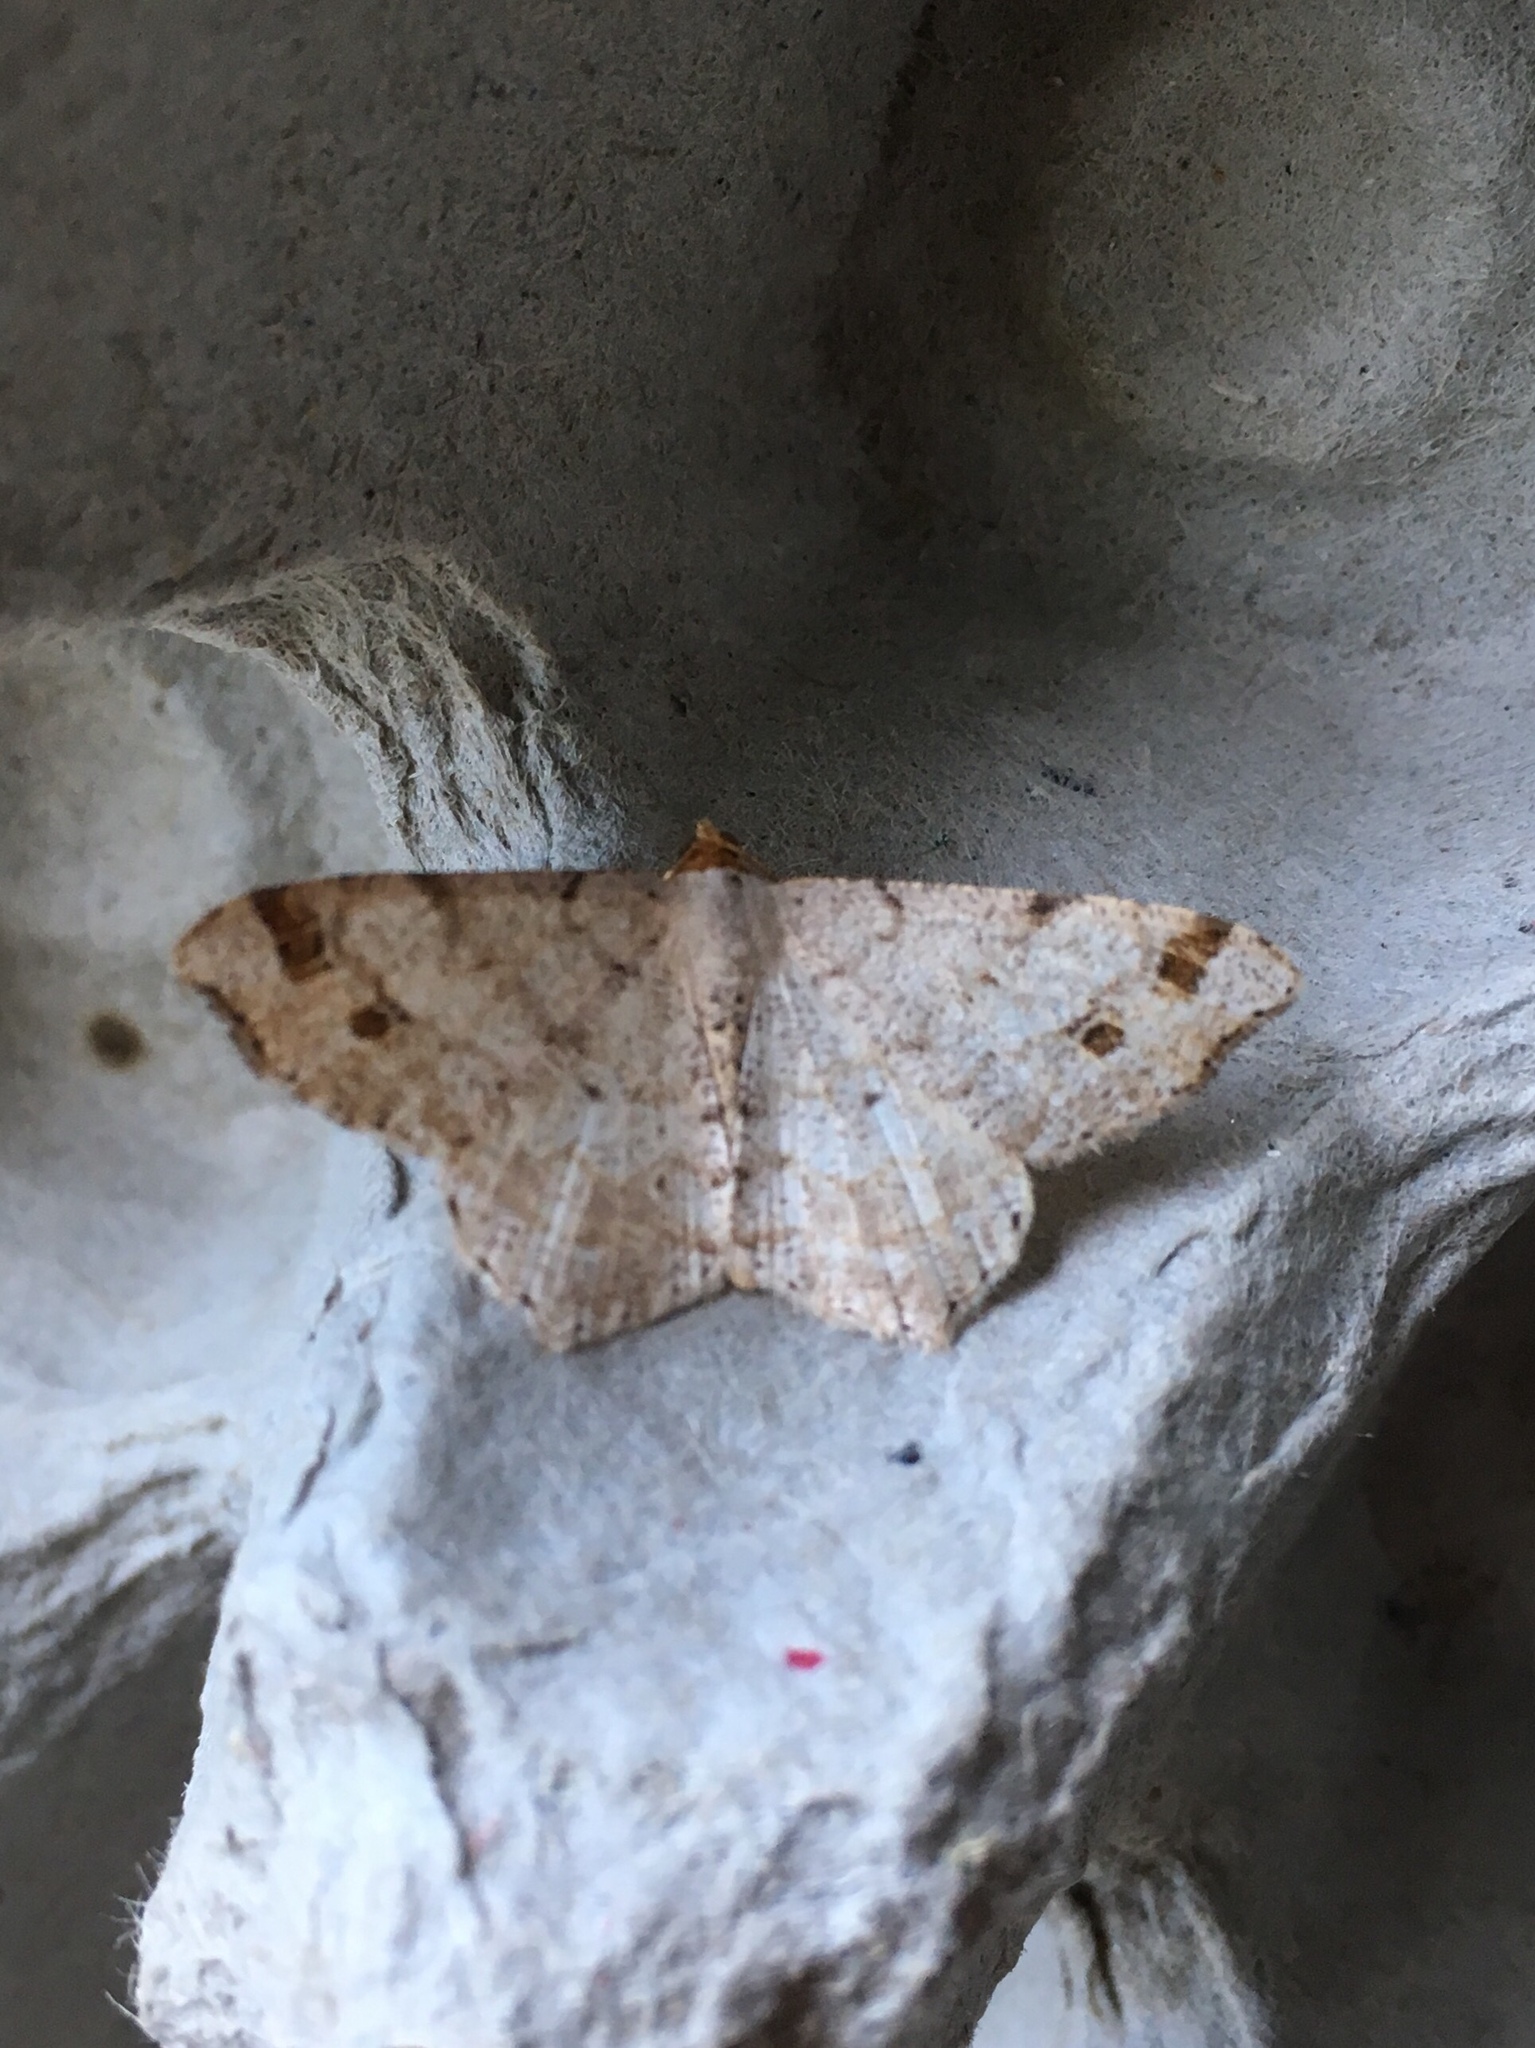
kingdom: Animalia
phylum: Arthropoda
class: Insecta
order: Lepidoptera
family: Geometridae
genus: Macaria
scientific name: Macaria bisignata
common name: Red-headed inchworm
